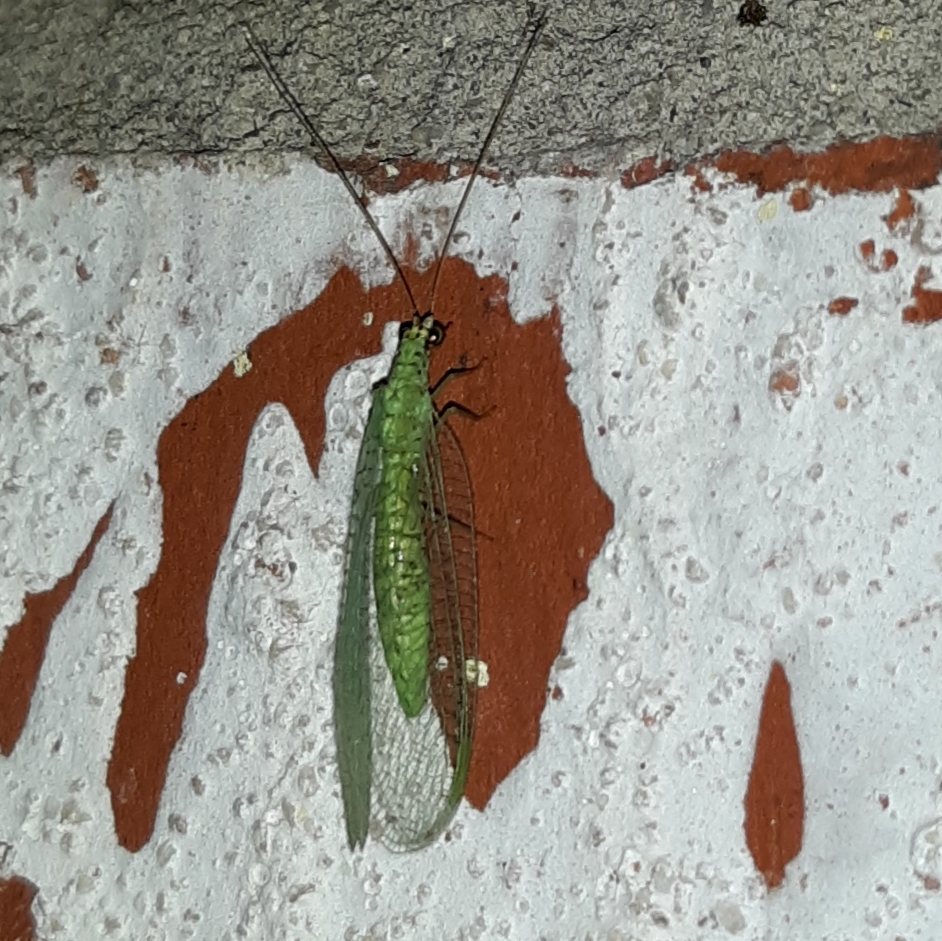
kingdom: Animalia
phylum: Arthropoda
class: Insecta
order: Neuroptera
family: Chrysopidae
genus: Chrysopa
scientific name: Chrysopa oculata
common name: Golden-eyed lacewing
